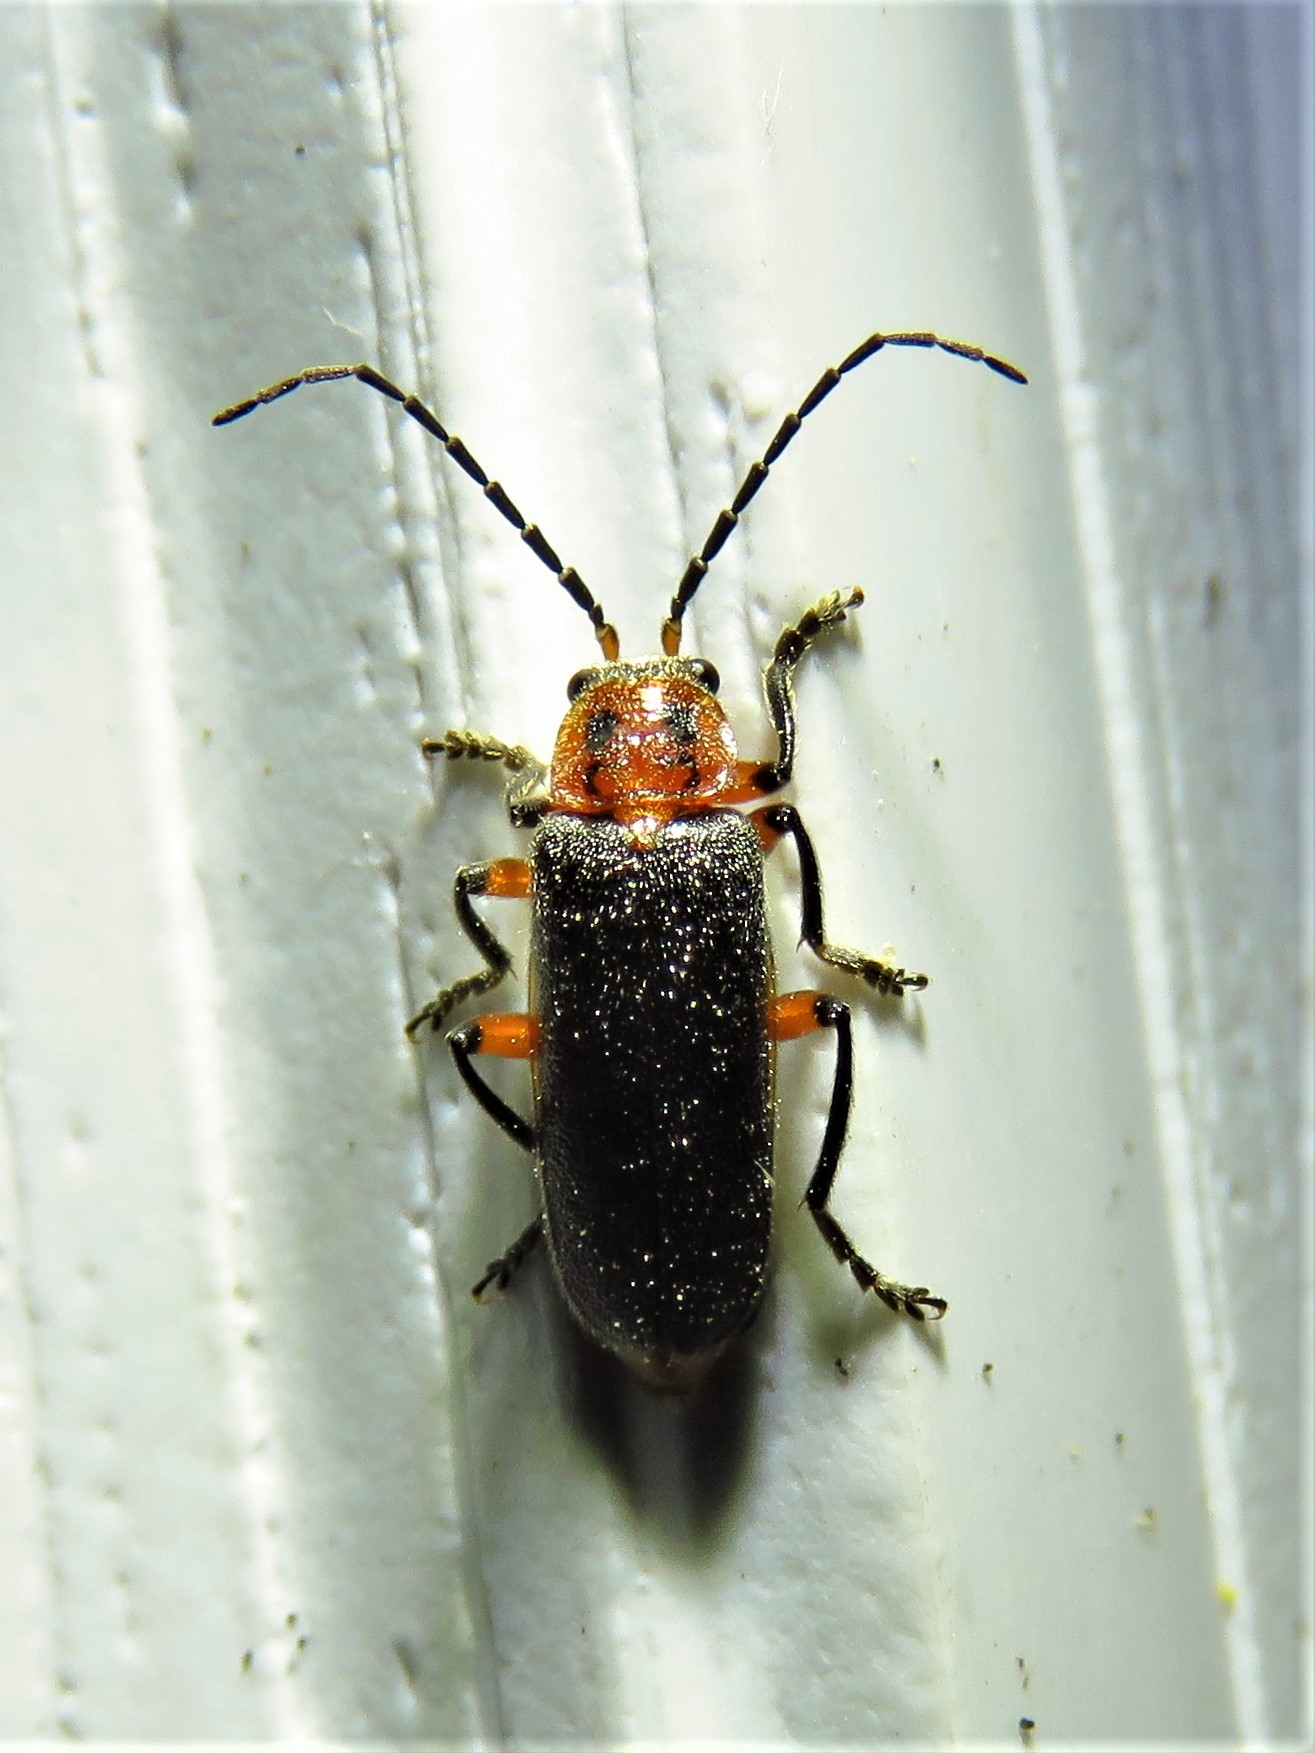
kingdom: Animalia
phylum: Arthropoda
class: Insecta
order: Coleoptera
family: Cantharidae
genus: Atalantycha
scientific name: Atalantycha bilineata
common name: Two-lined leatherwing
